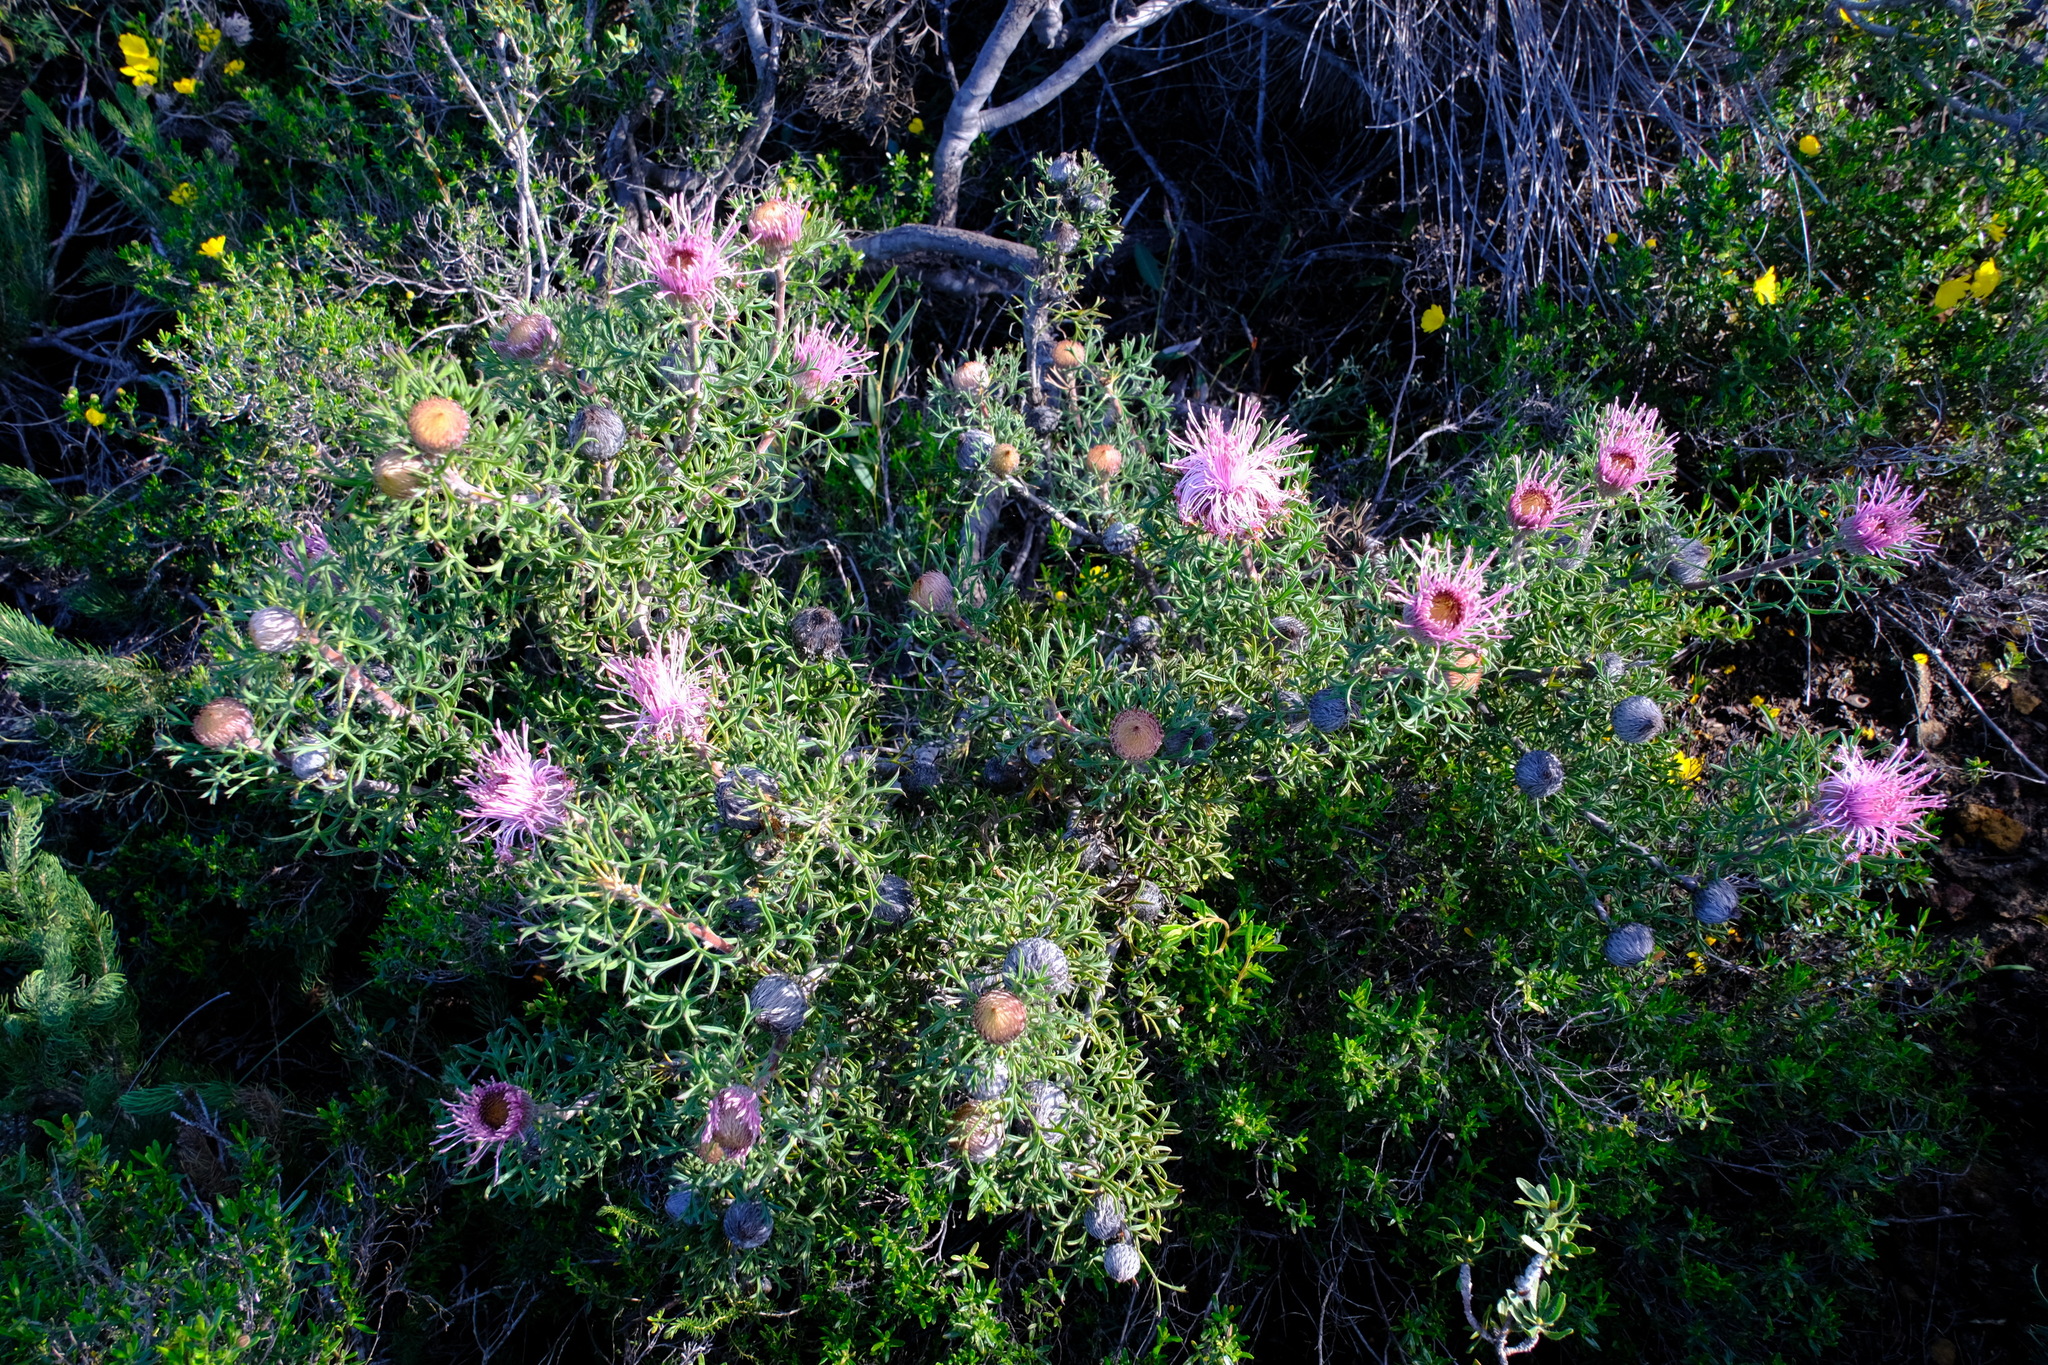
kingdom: Plantae
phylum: Tracheophyta
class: Magnoliopsida
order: Proteales
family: Proteaceae
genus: Isopogon
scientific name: Isopogon dubius
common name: Pincushion-coneflower
